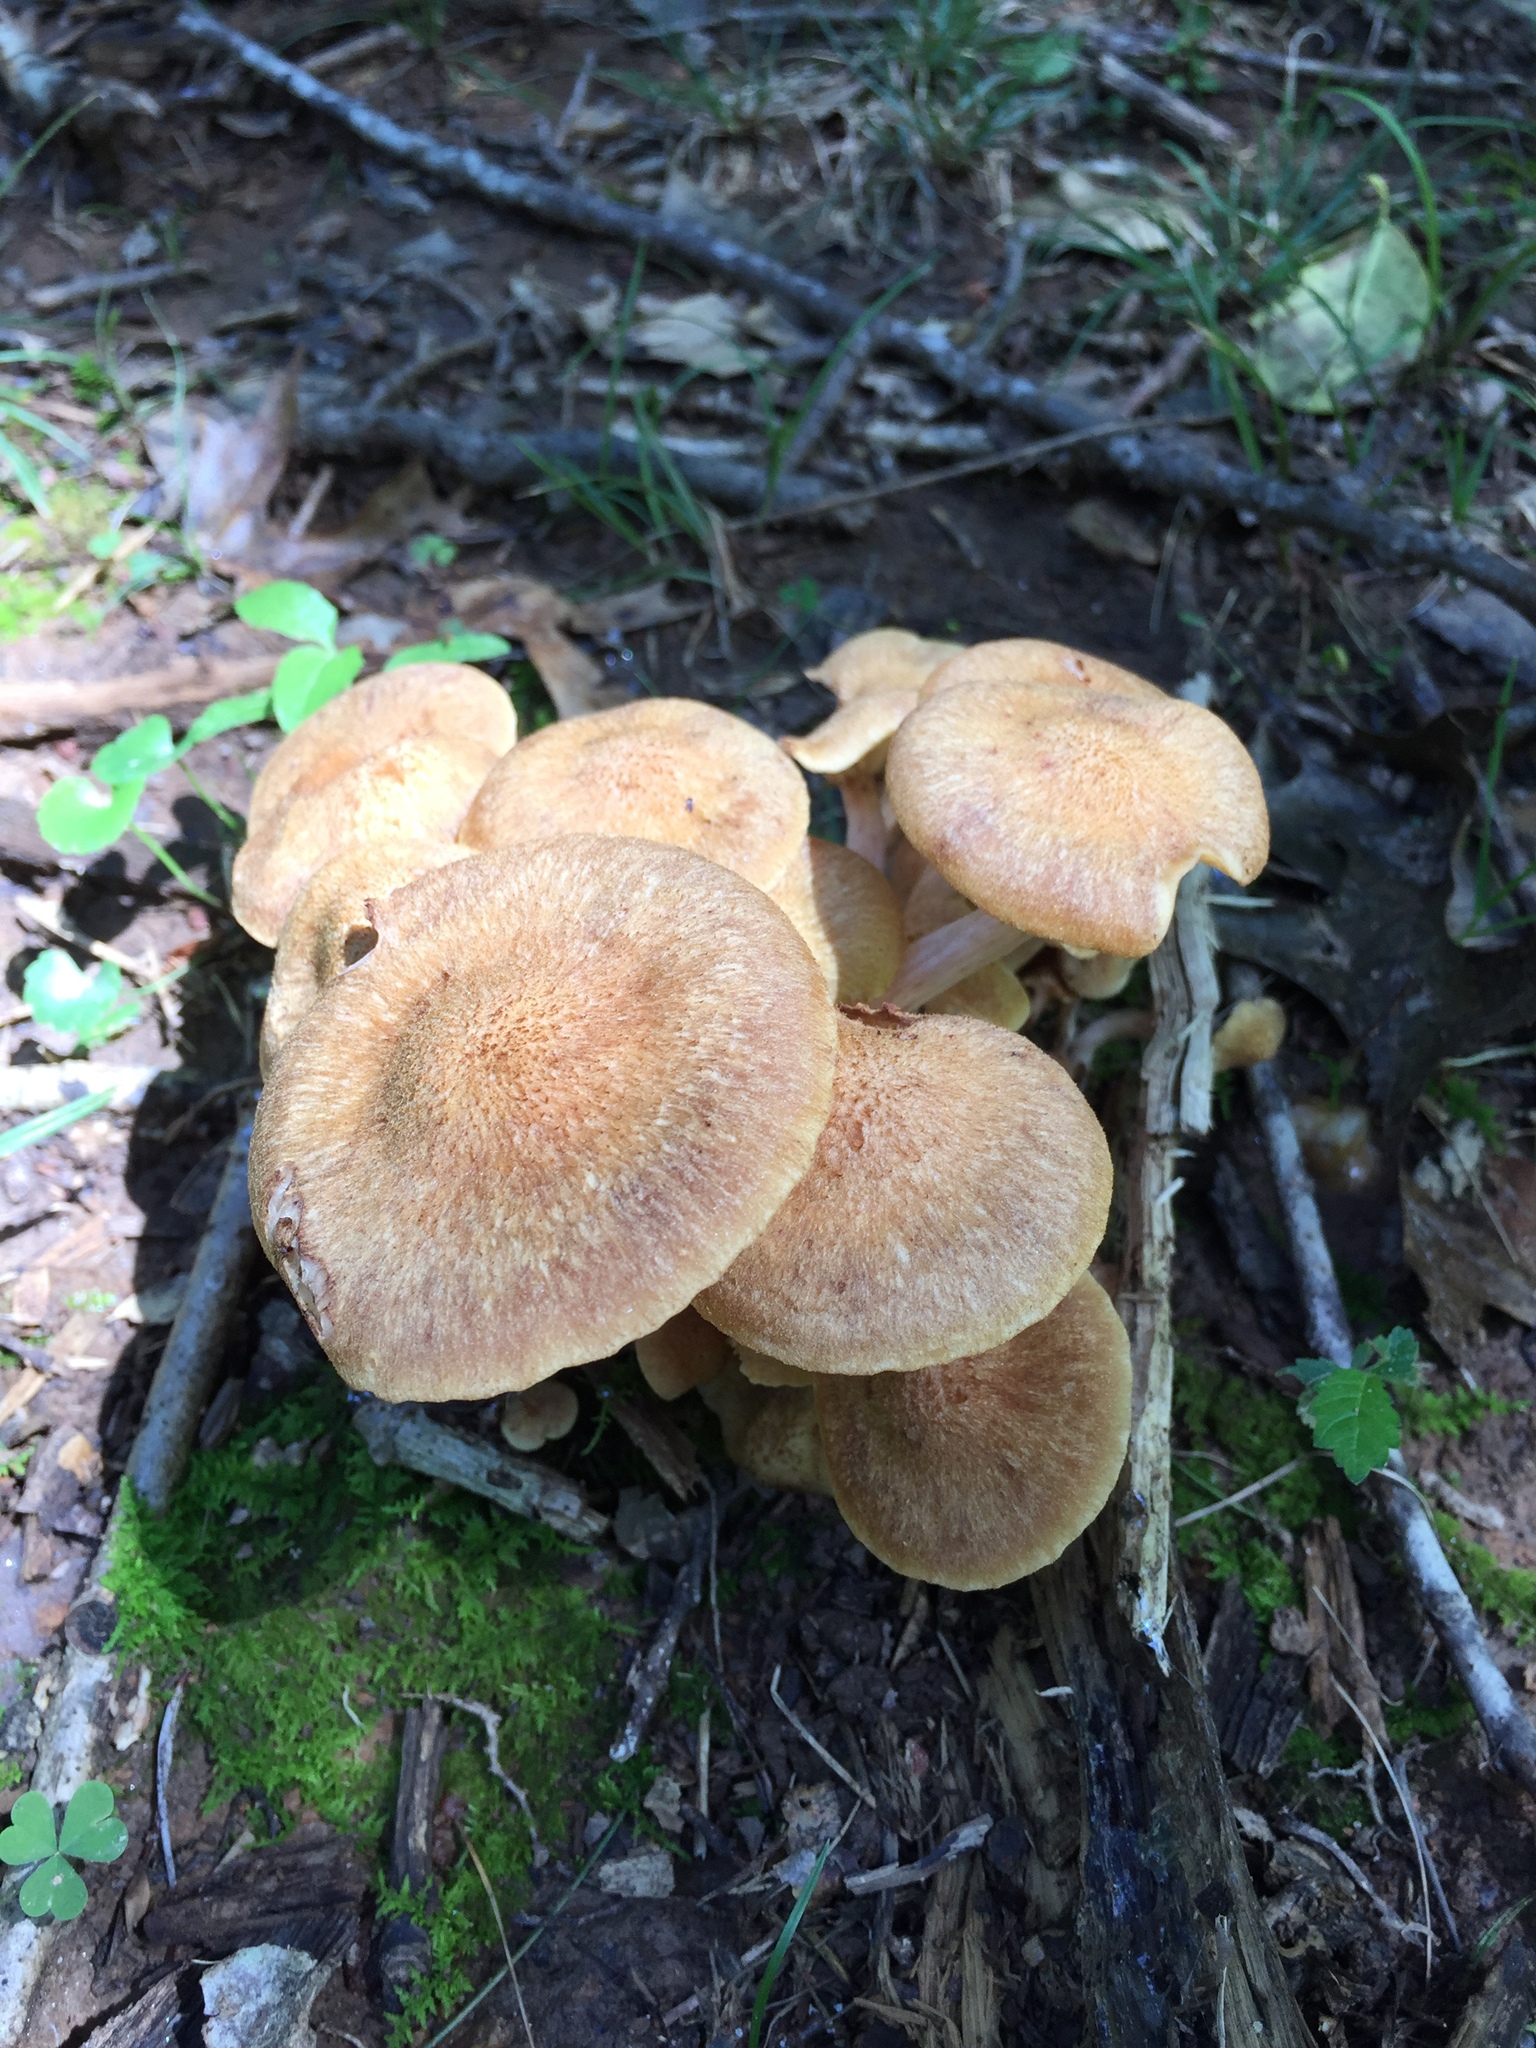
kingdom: Fungi
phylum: Basidiomycota
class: Agaricomycetes
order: Agaricales
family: Physalacriaceae
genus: Desarmillaria
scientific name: Desarmillaria caespitosa
